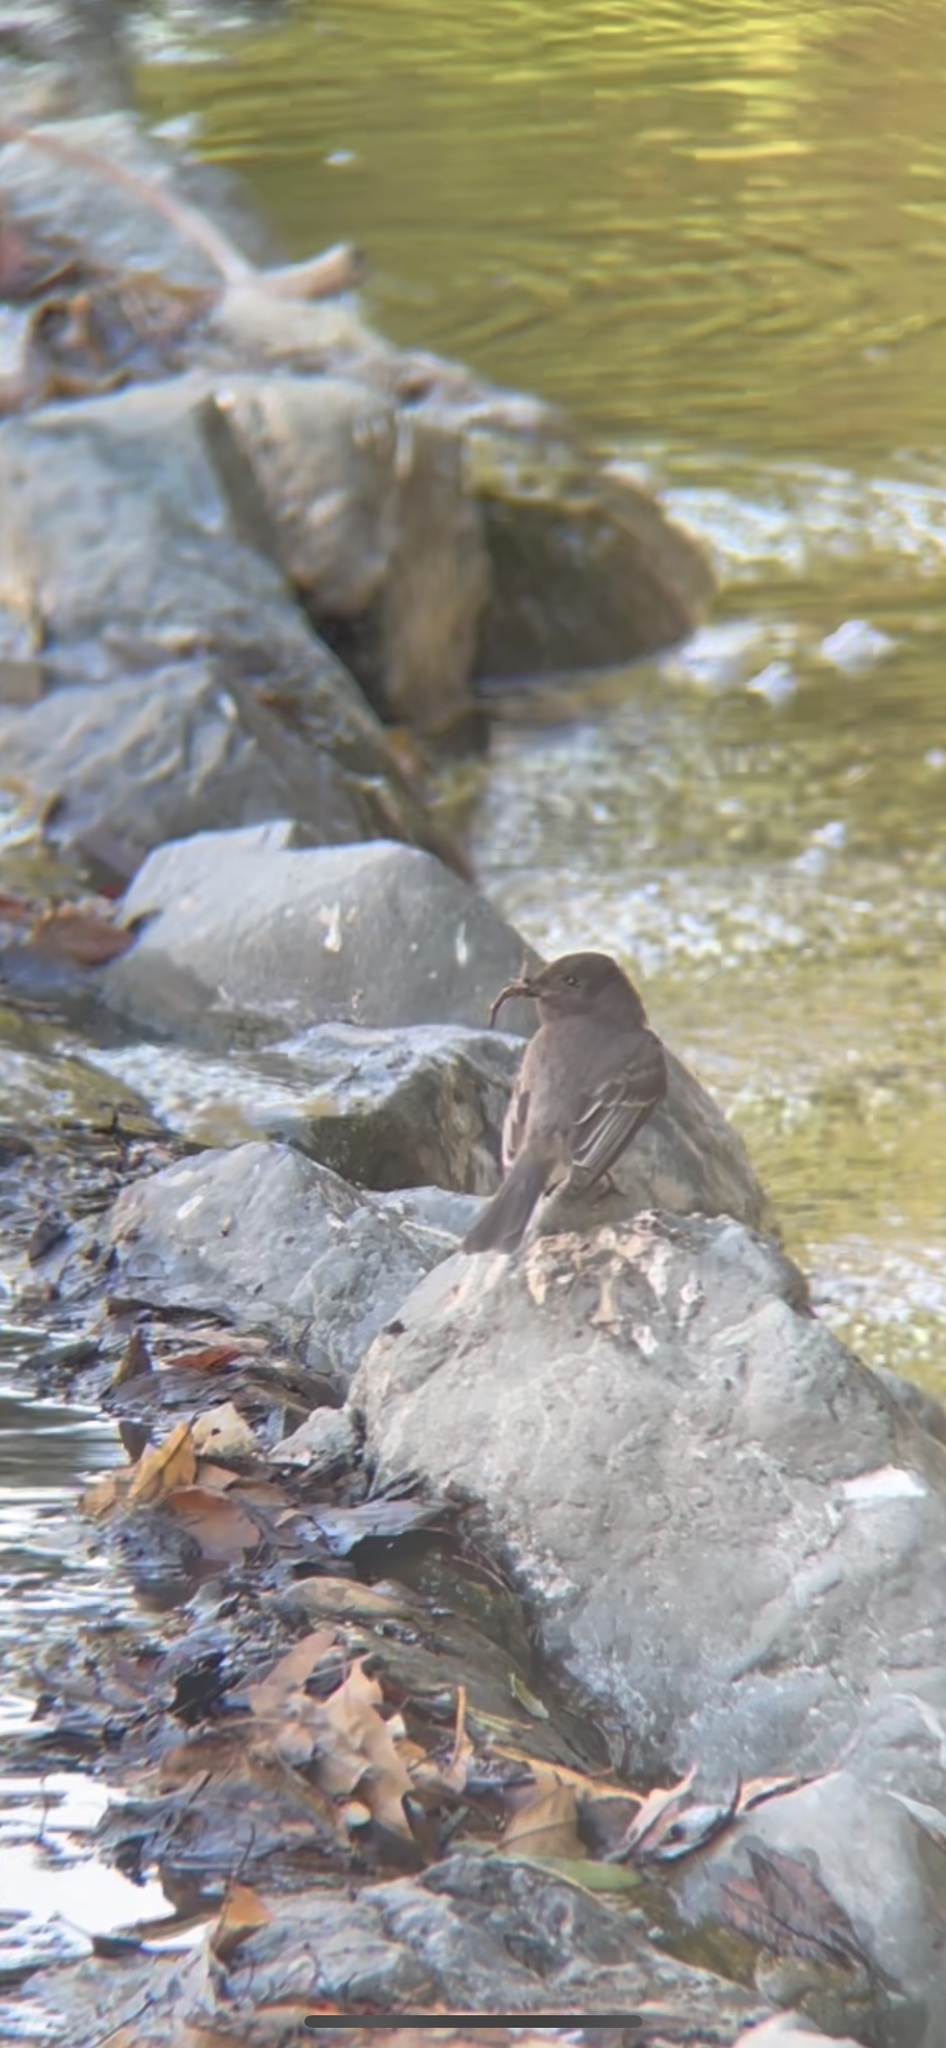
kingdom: Animalia
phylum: Chordata
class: Aves
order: Passeriformes
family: Tyrannidae
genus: Sayornis
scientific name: Sayornis nigricans
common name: Black phoebe
